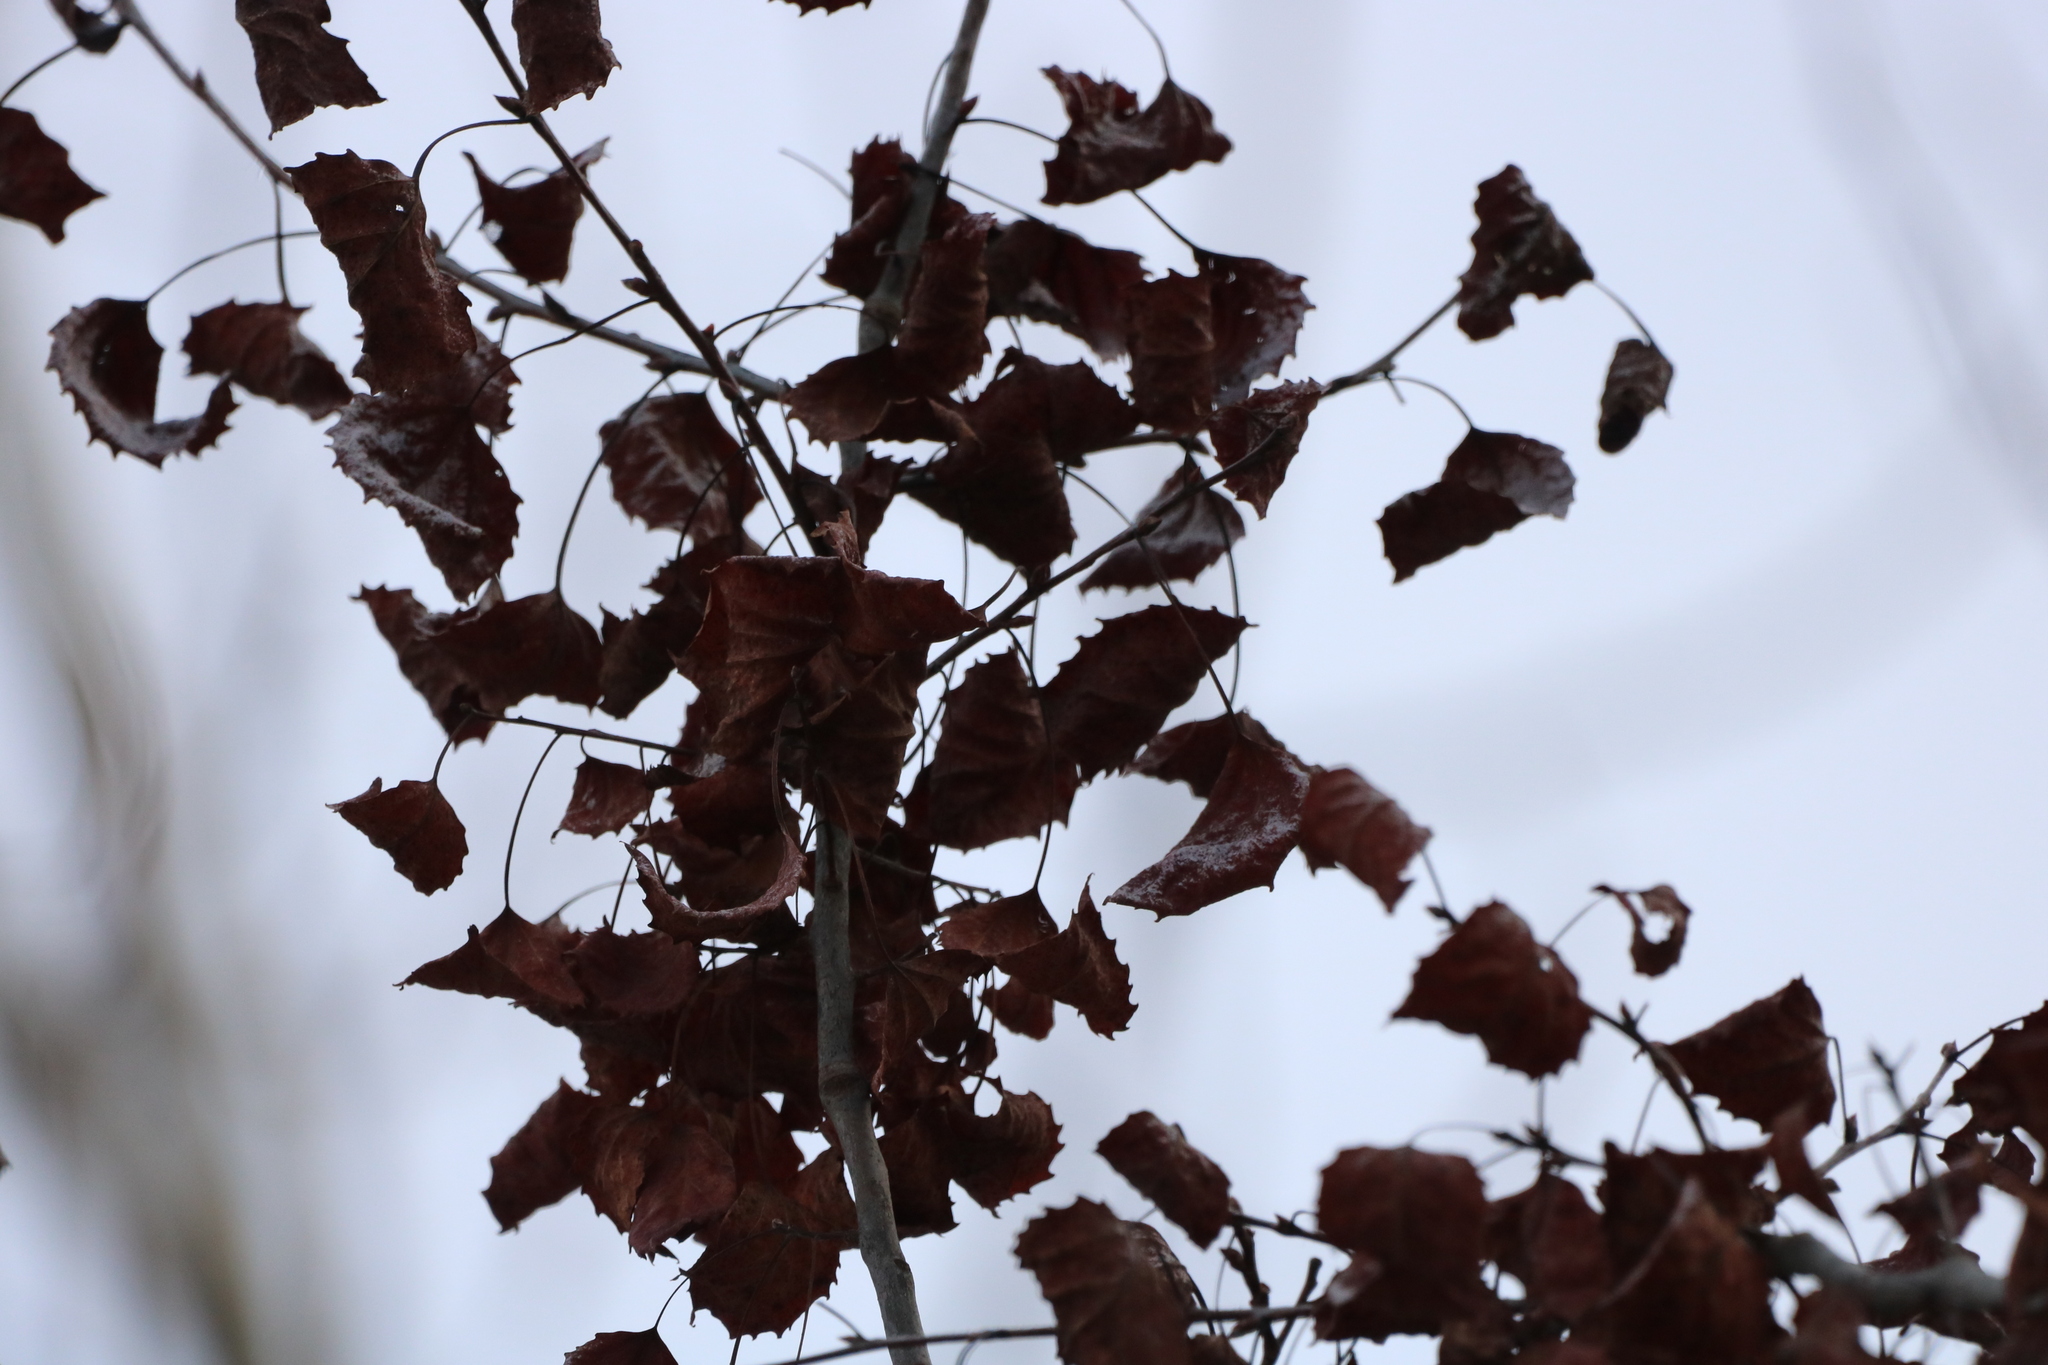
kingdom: Plantae
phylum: Tracheophyta
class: Magnoliopsida
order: Malpighiales
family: Salicaceae
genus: Populus
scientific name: Populus grandidentata
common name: Bigtooth aspen
